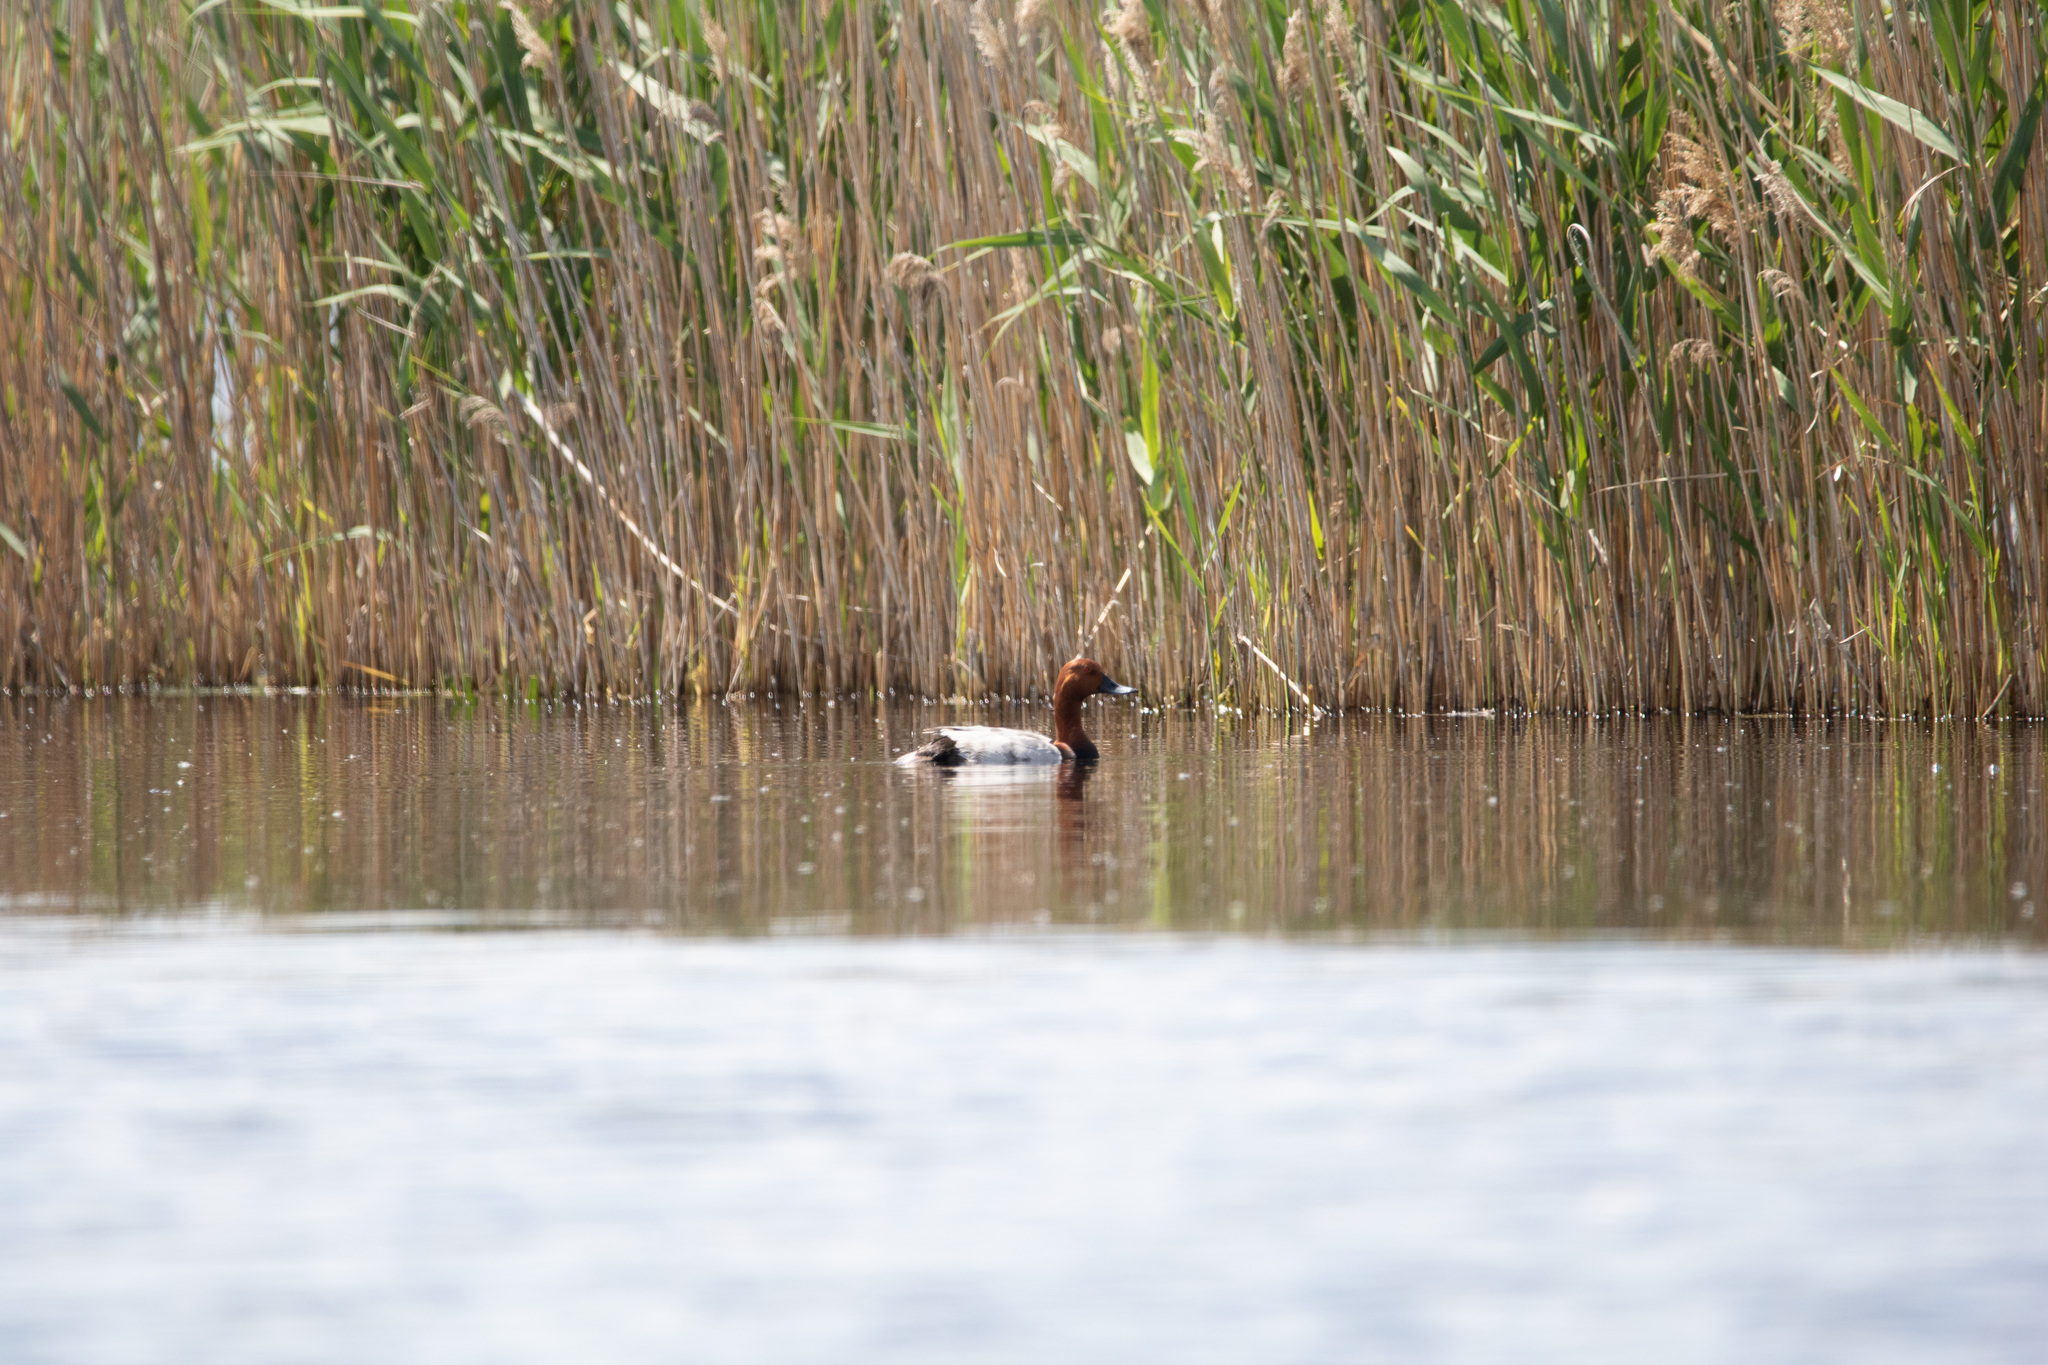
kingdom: Animalia
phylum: Chordata
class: Aves
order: Anseriformes
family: Anatidae
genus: Aythya
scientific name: Aythya ferina
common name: Common pochard
